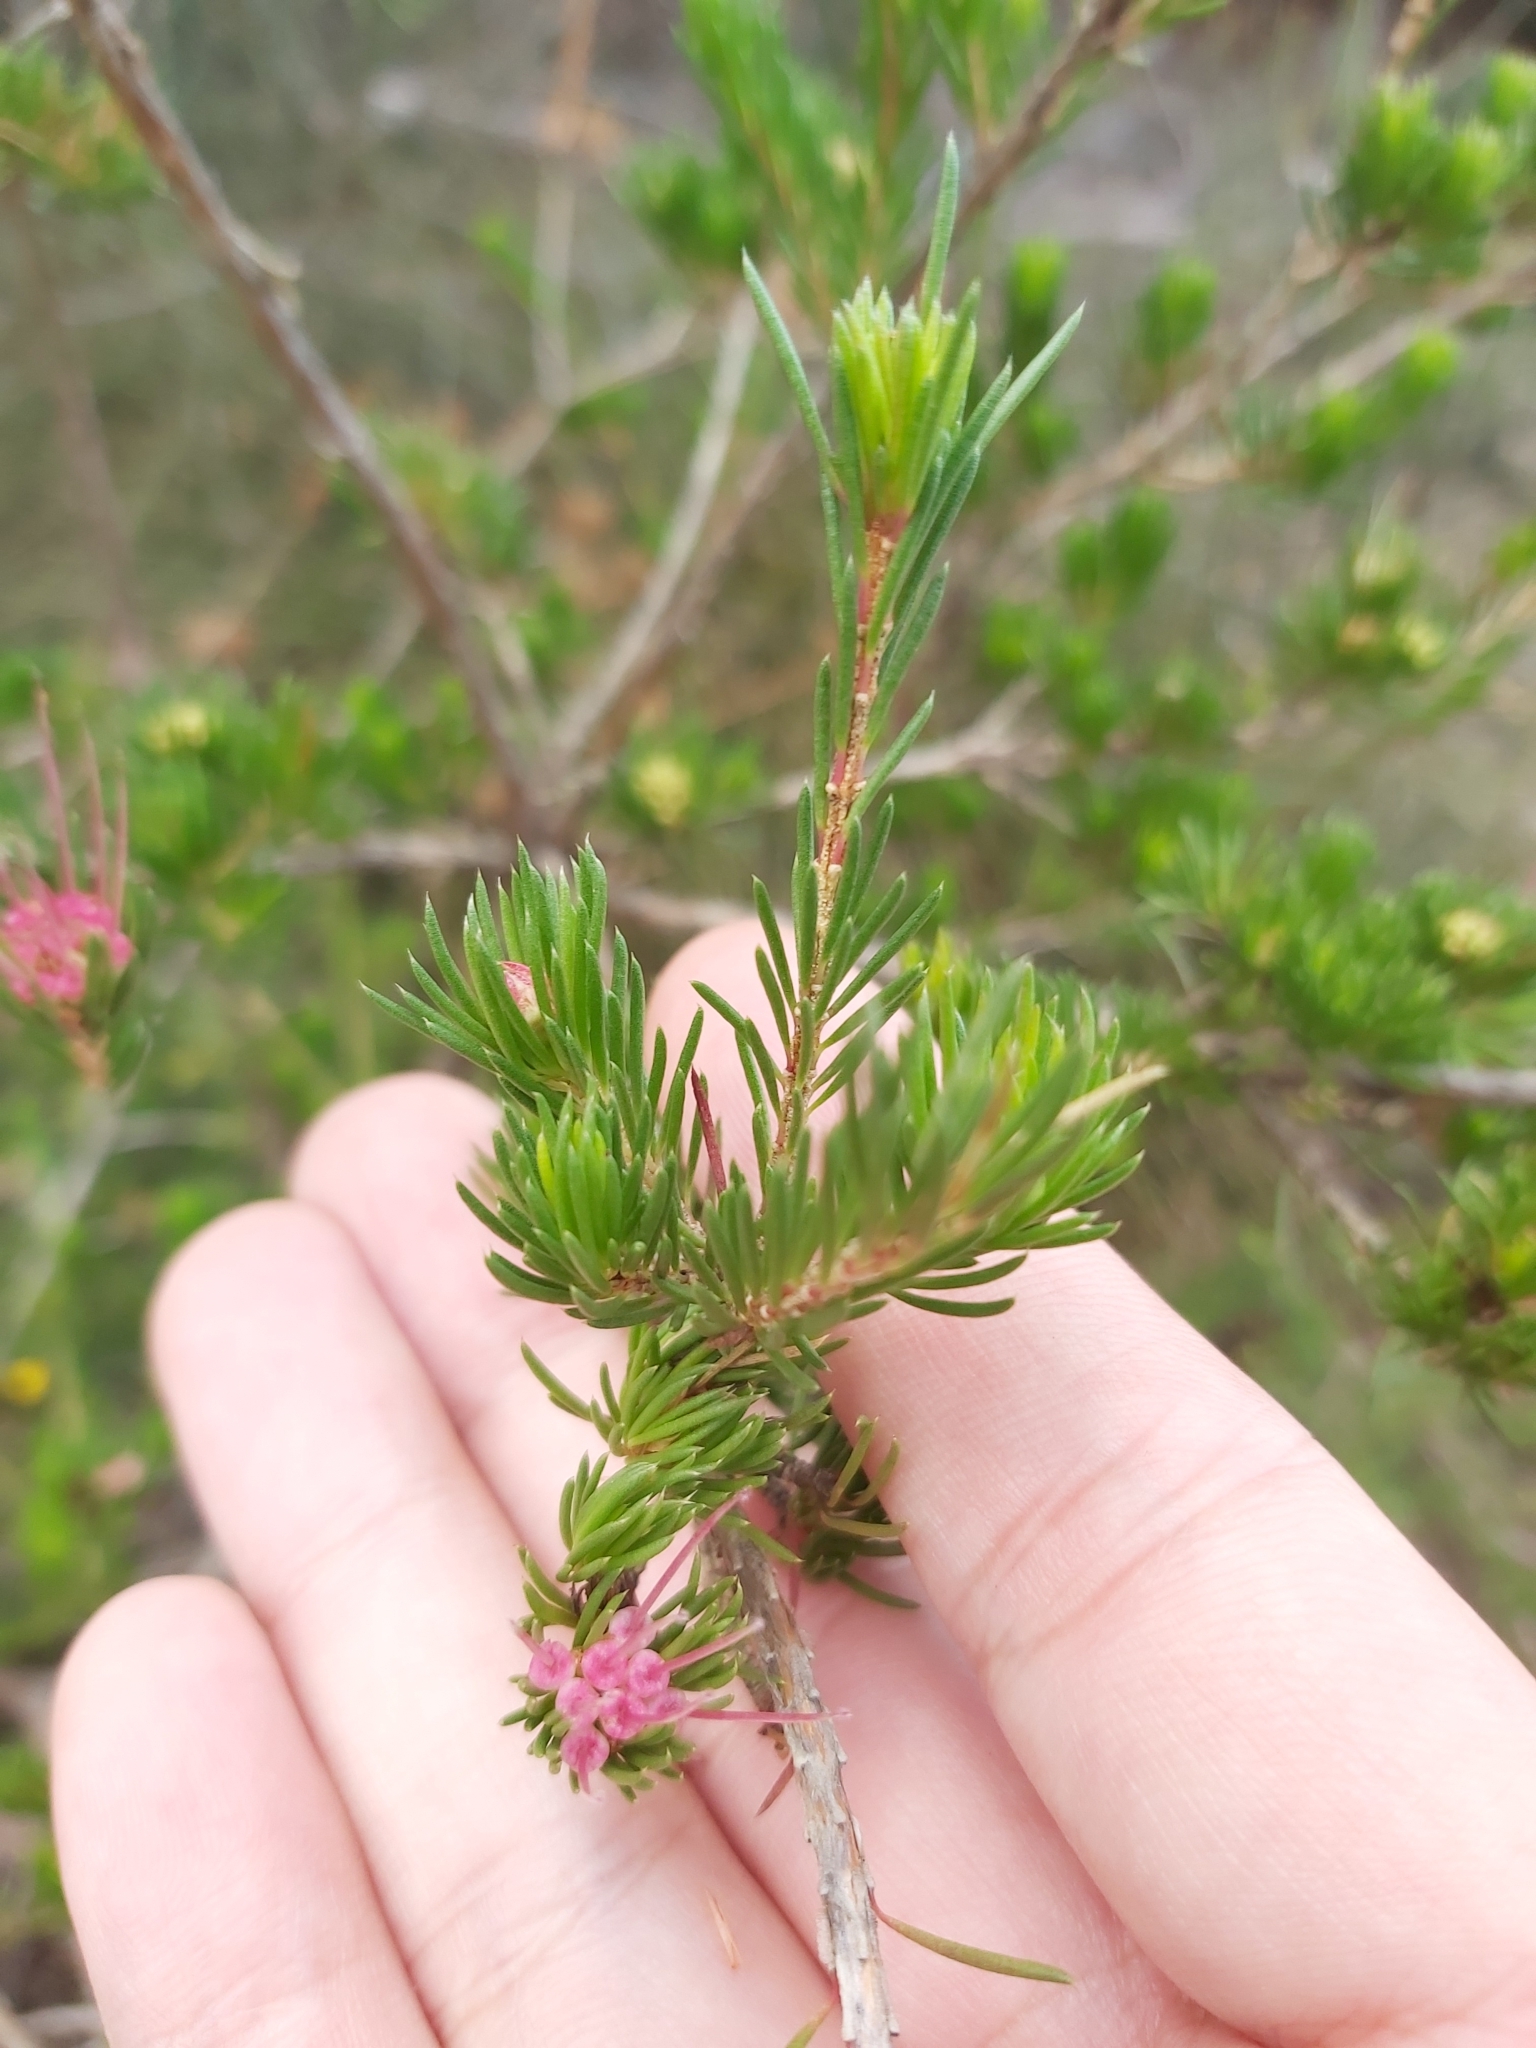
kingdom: Plantae
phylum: Tracheophyta
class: Magnoliopsida
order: Myrtales
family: Myrtaceae
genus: Darwinia
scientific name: Darwinia fascicularis
